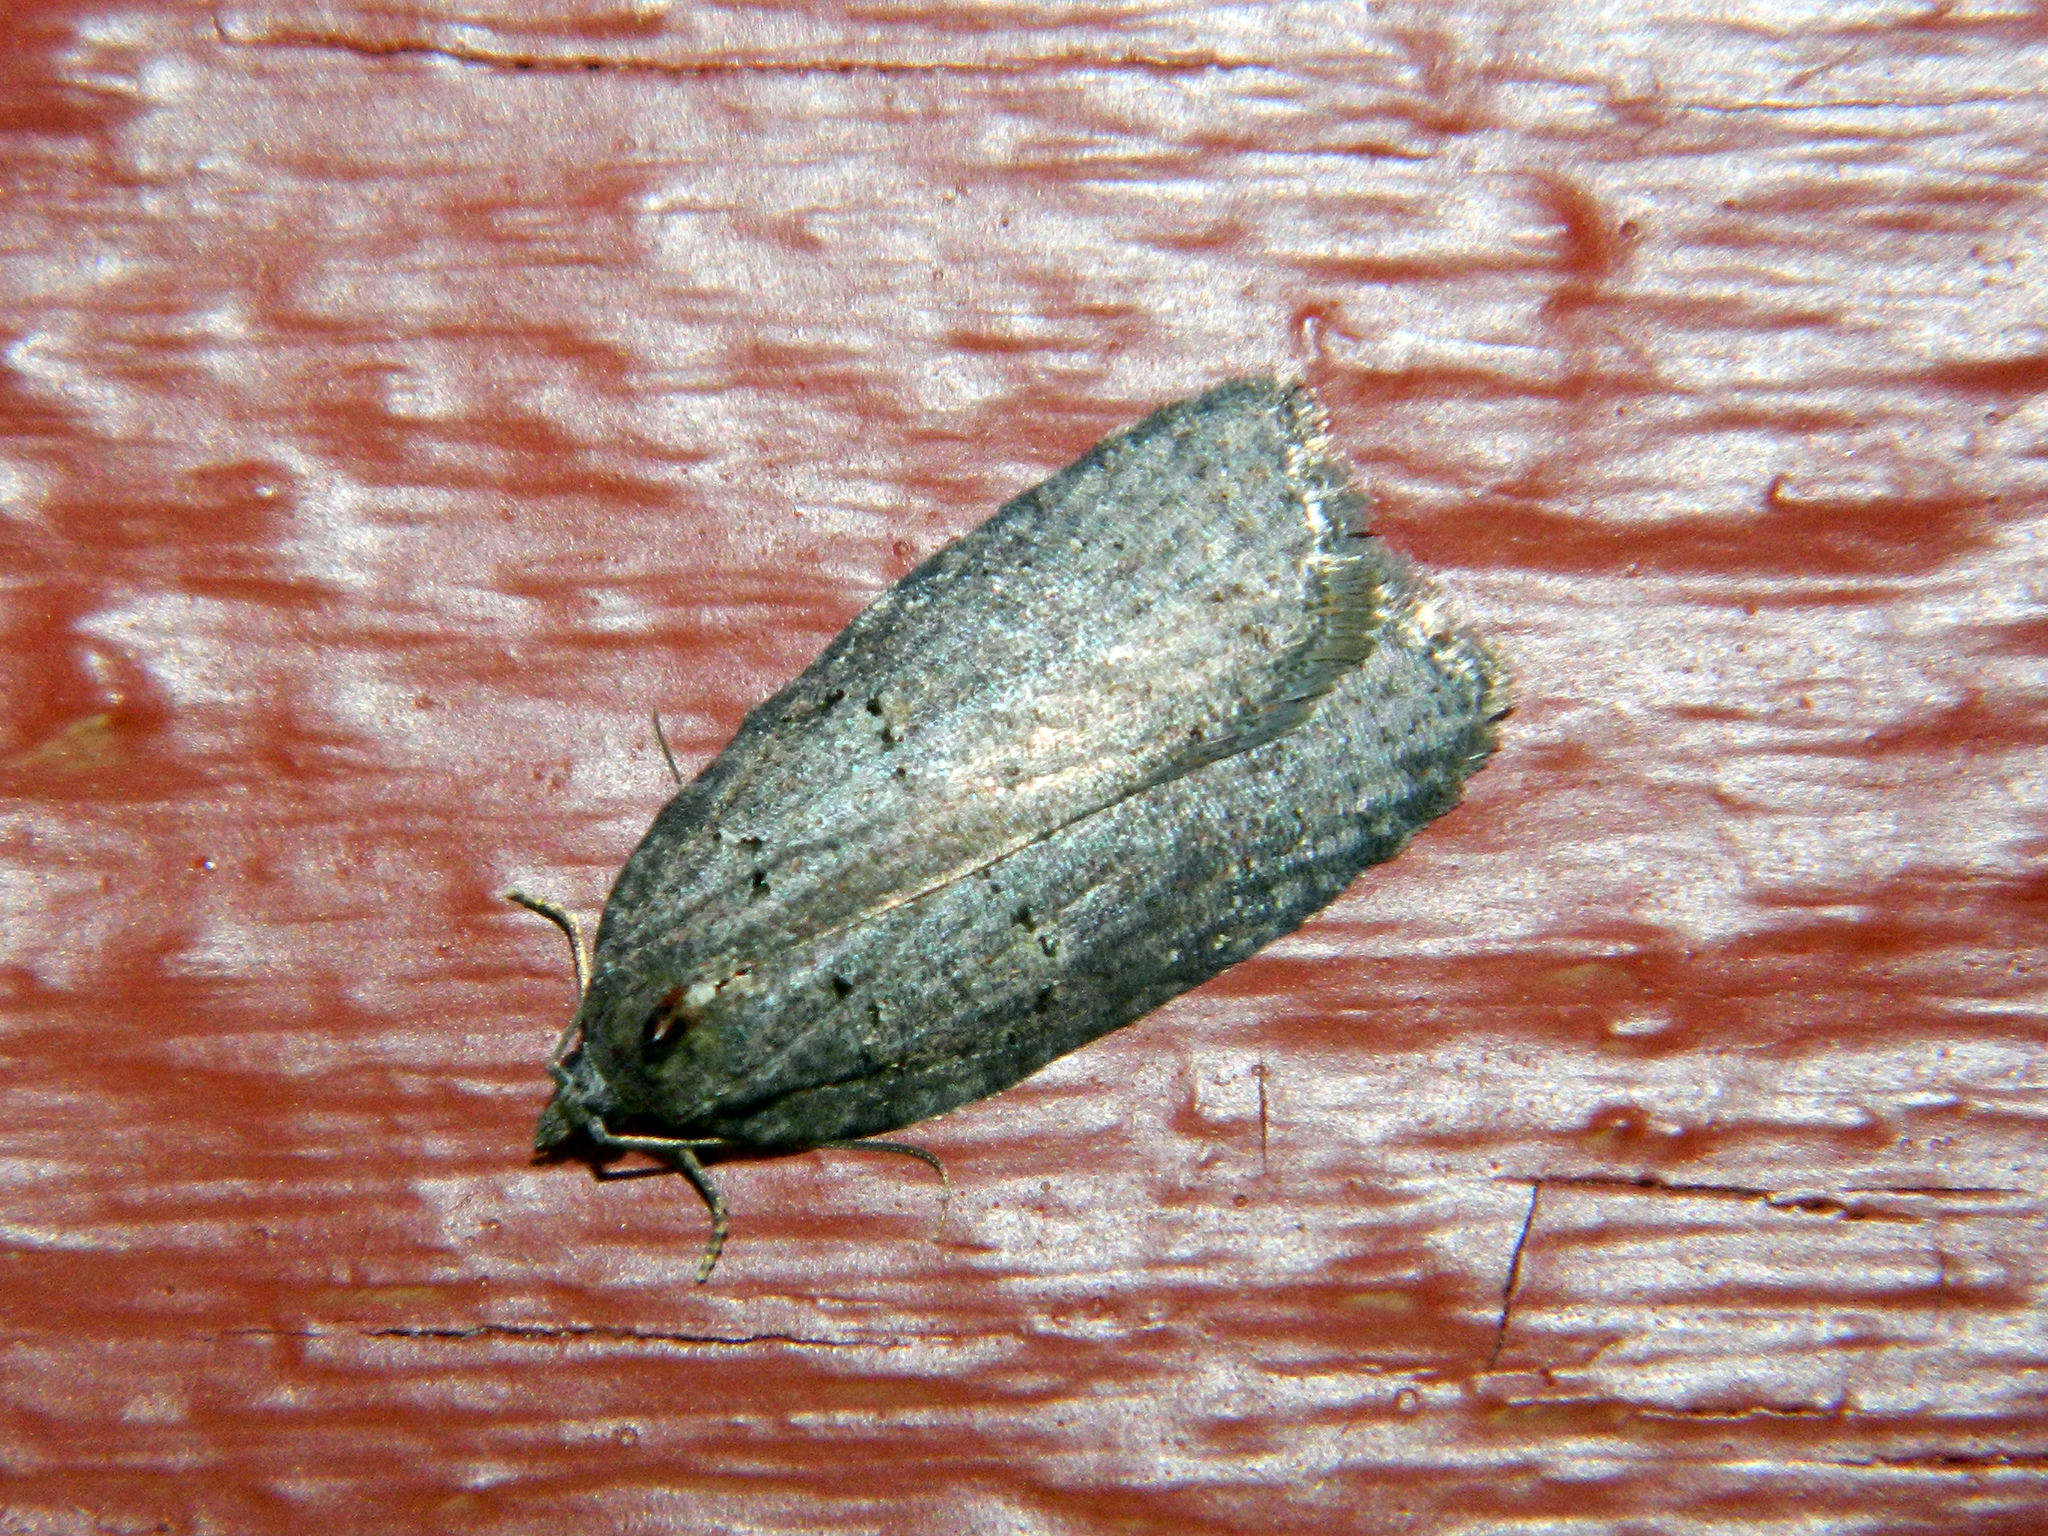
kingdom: Animalia
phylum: Arthropoda
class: Insecta
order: Lepidoptera
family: Tortricidae
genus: Acleris
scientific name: Acleris caliginosana
